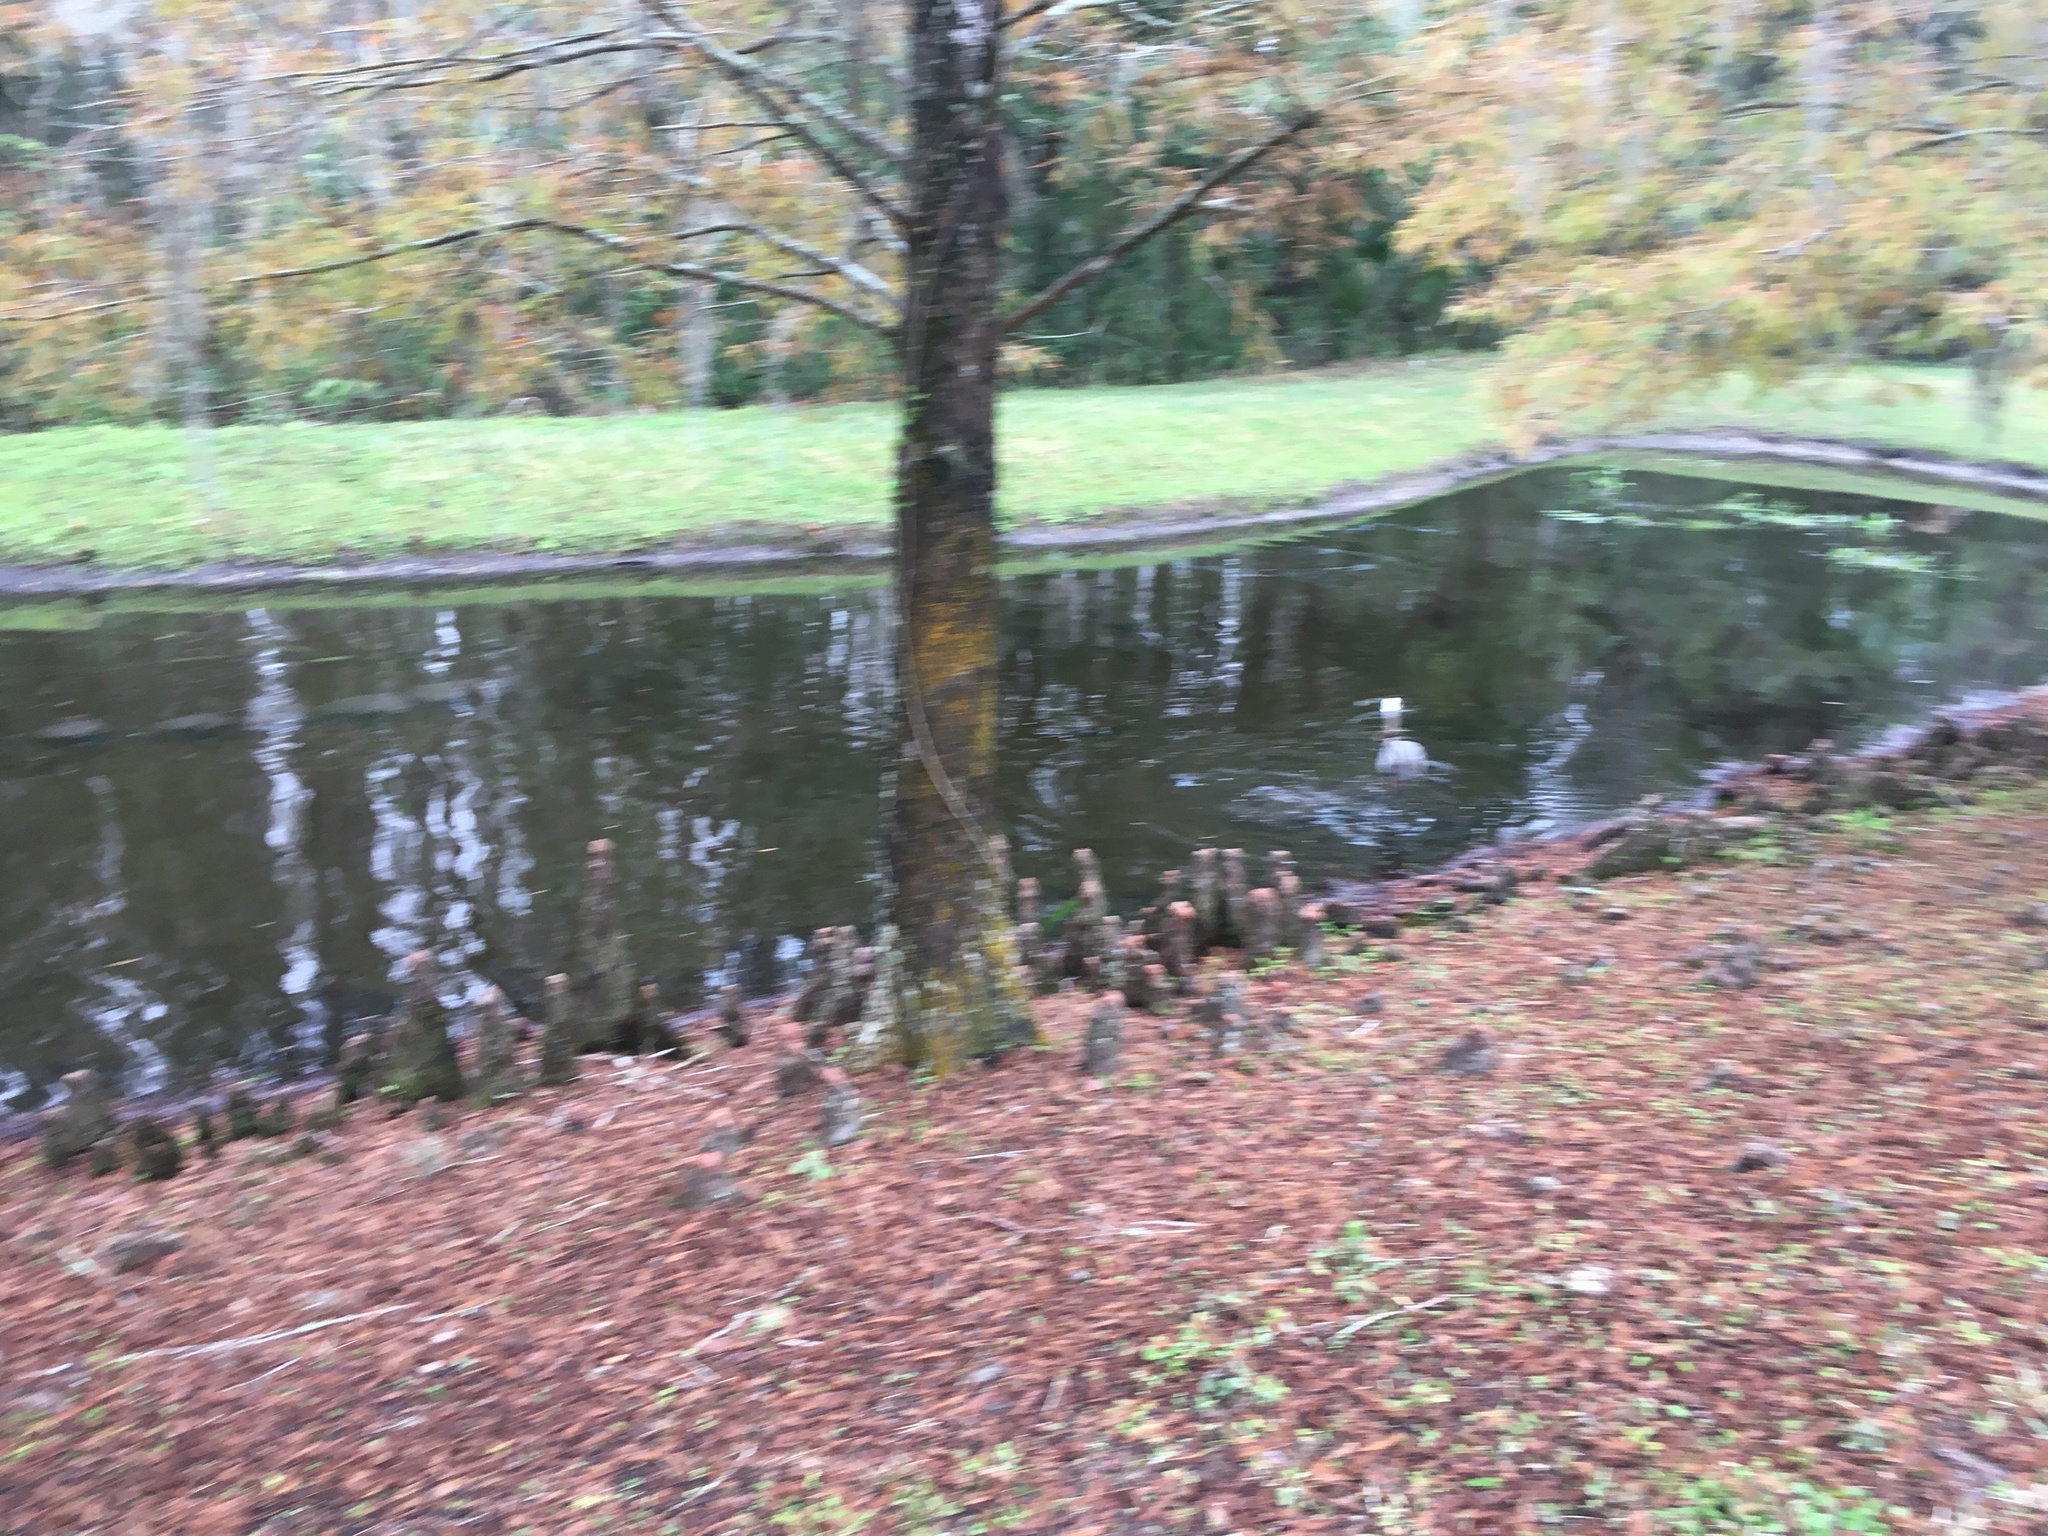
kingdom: Animalia
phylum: Chordata
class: Mammalia
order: Carnivora
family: Mustelidae
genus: Lontra
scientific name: Lontra canadensis
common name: North american river otter
